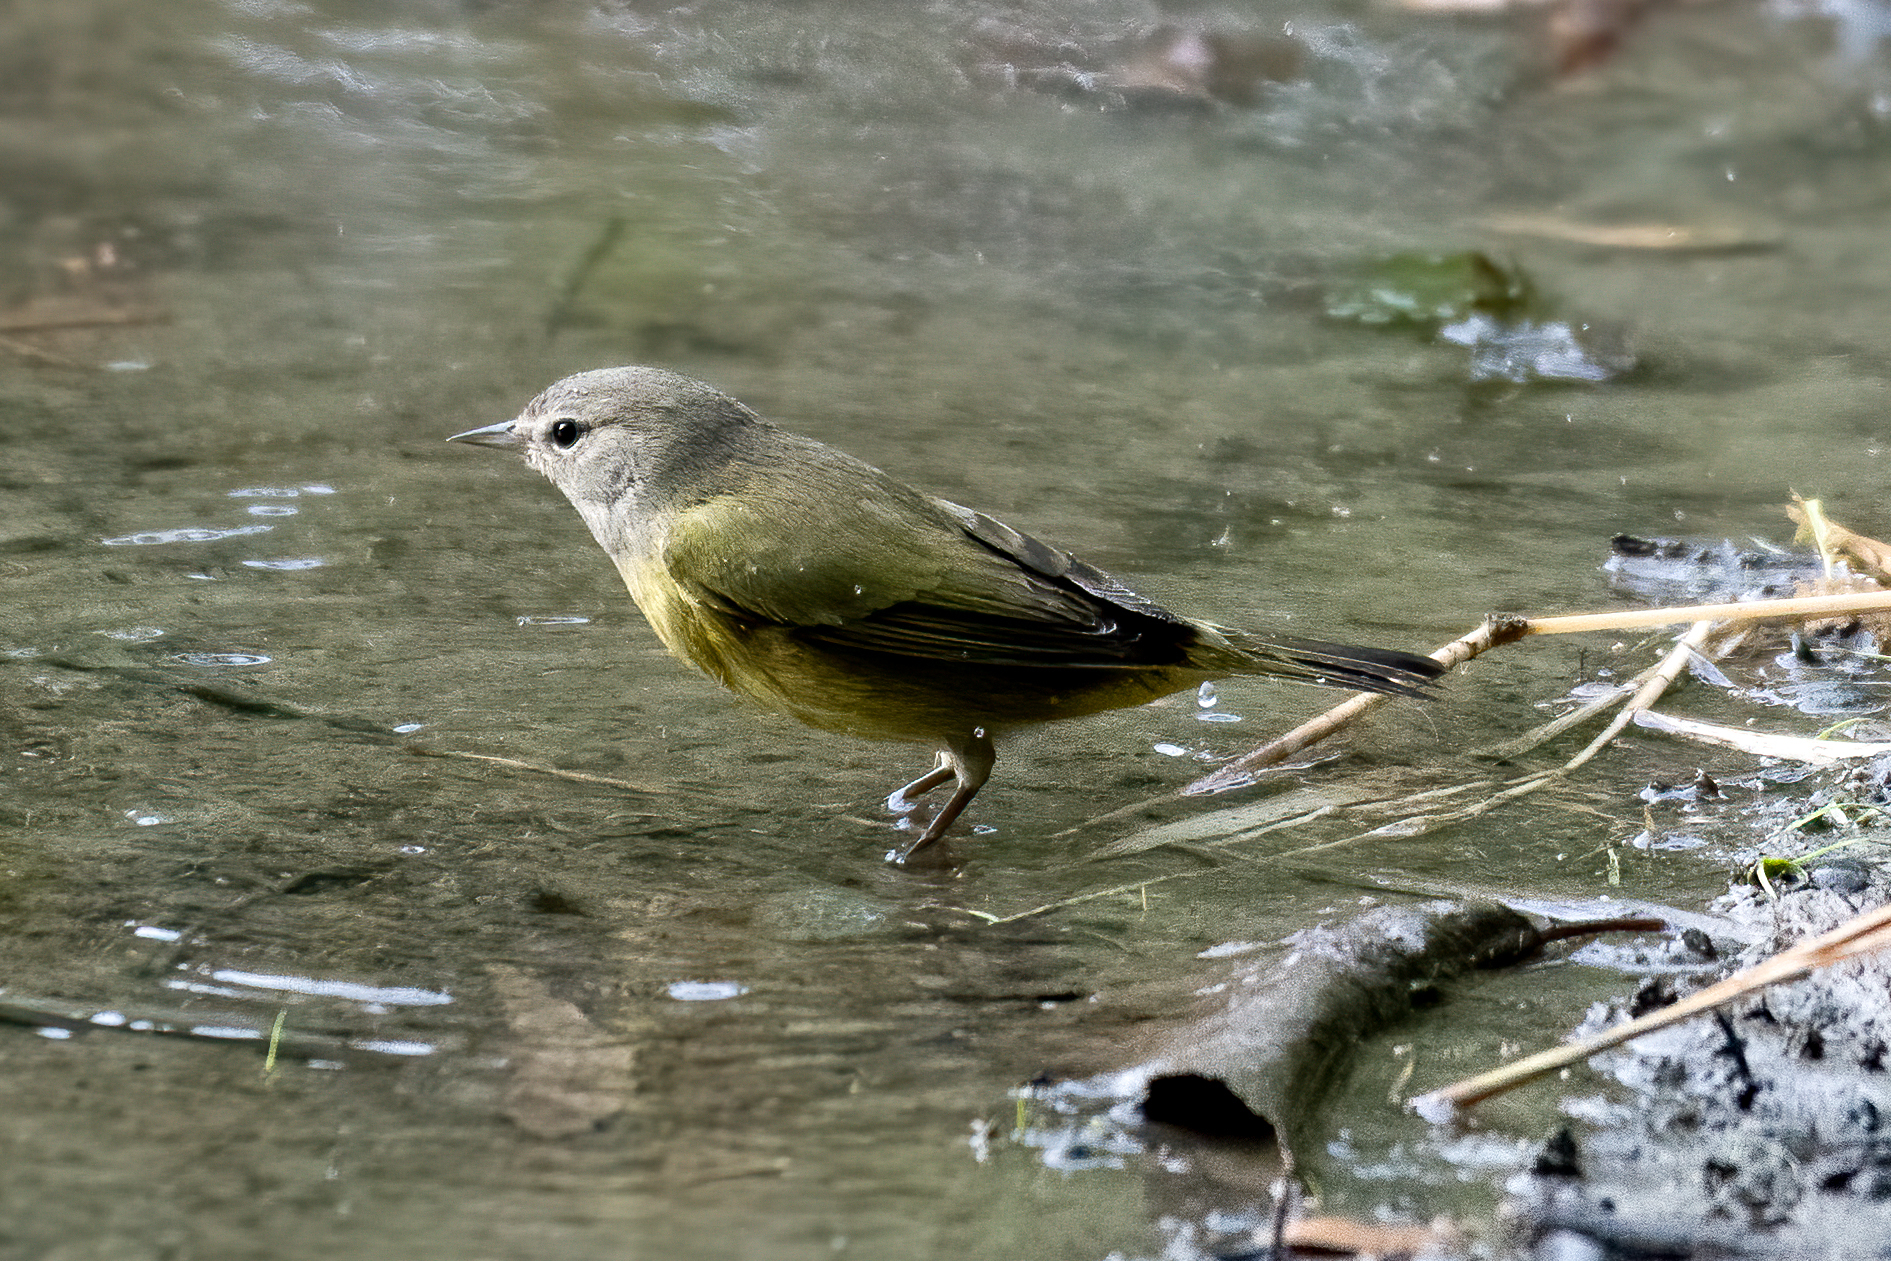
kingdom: Animalia
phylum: Chordata
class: Aves
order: Passeriformes
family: Parulidae
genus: Geothlypis
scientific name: Geothlypis tolmiei
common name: Macgillivray's warbler
